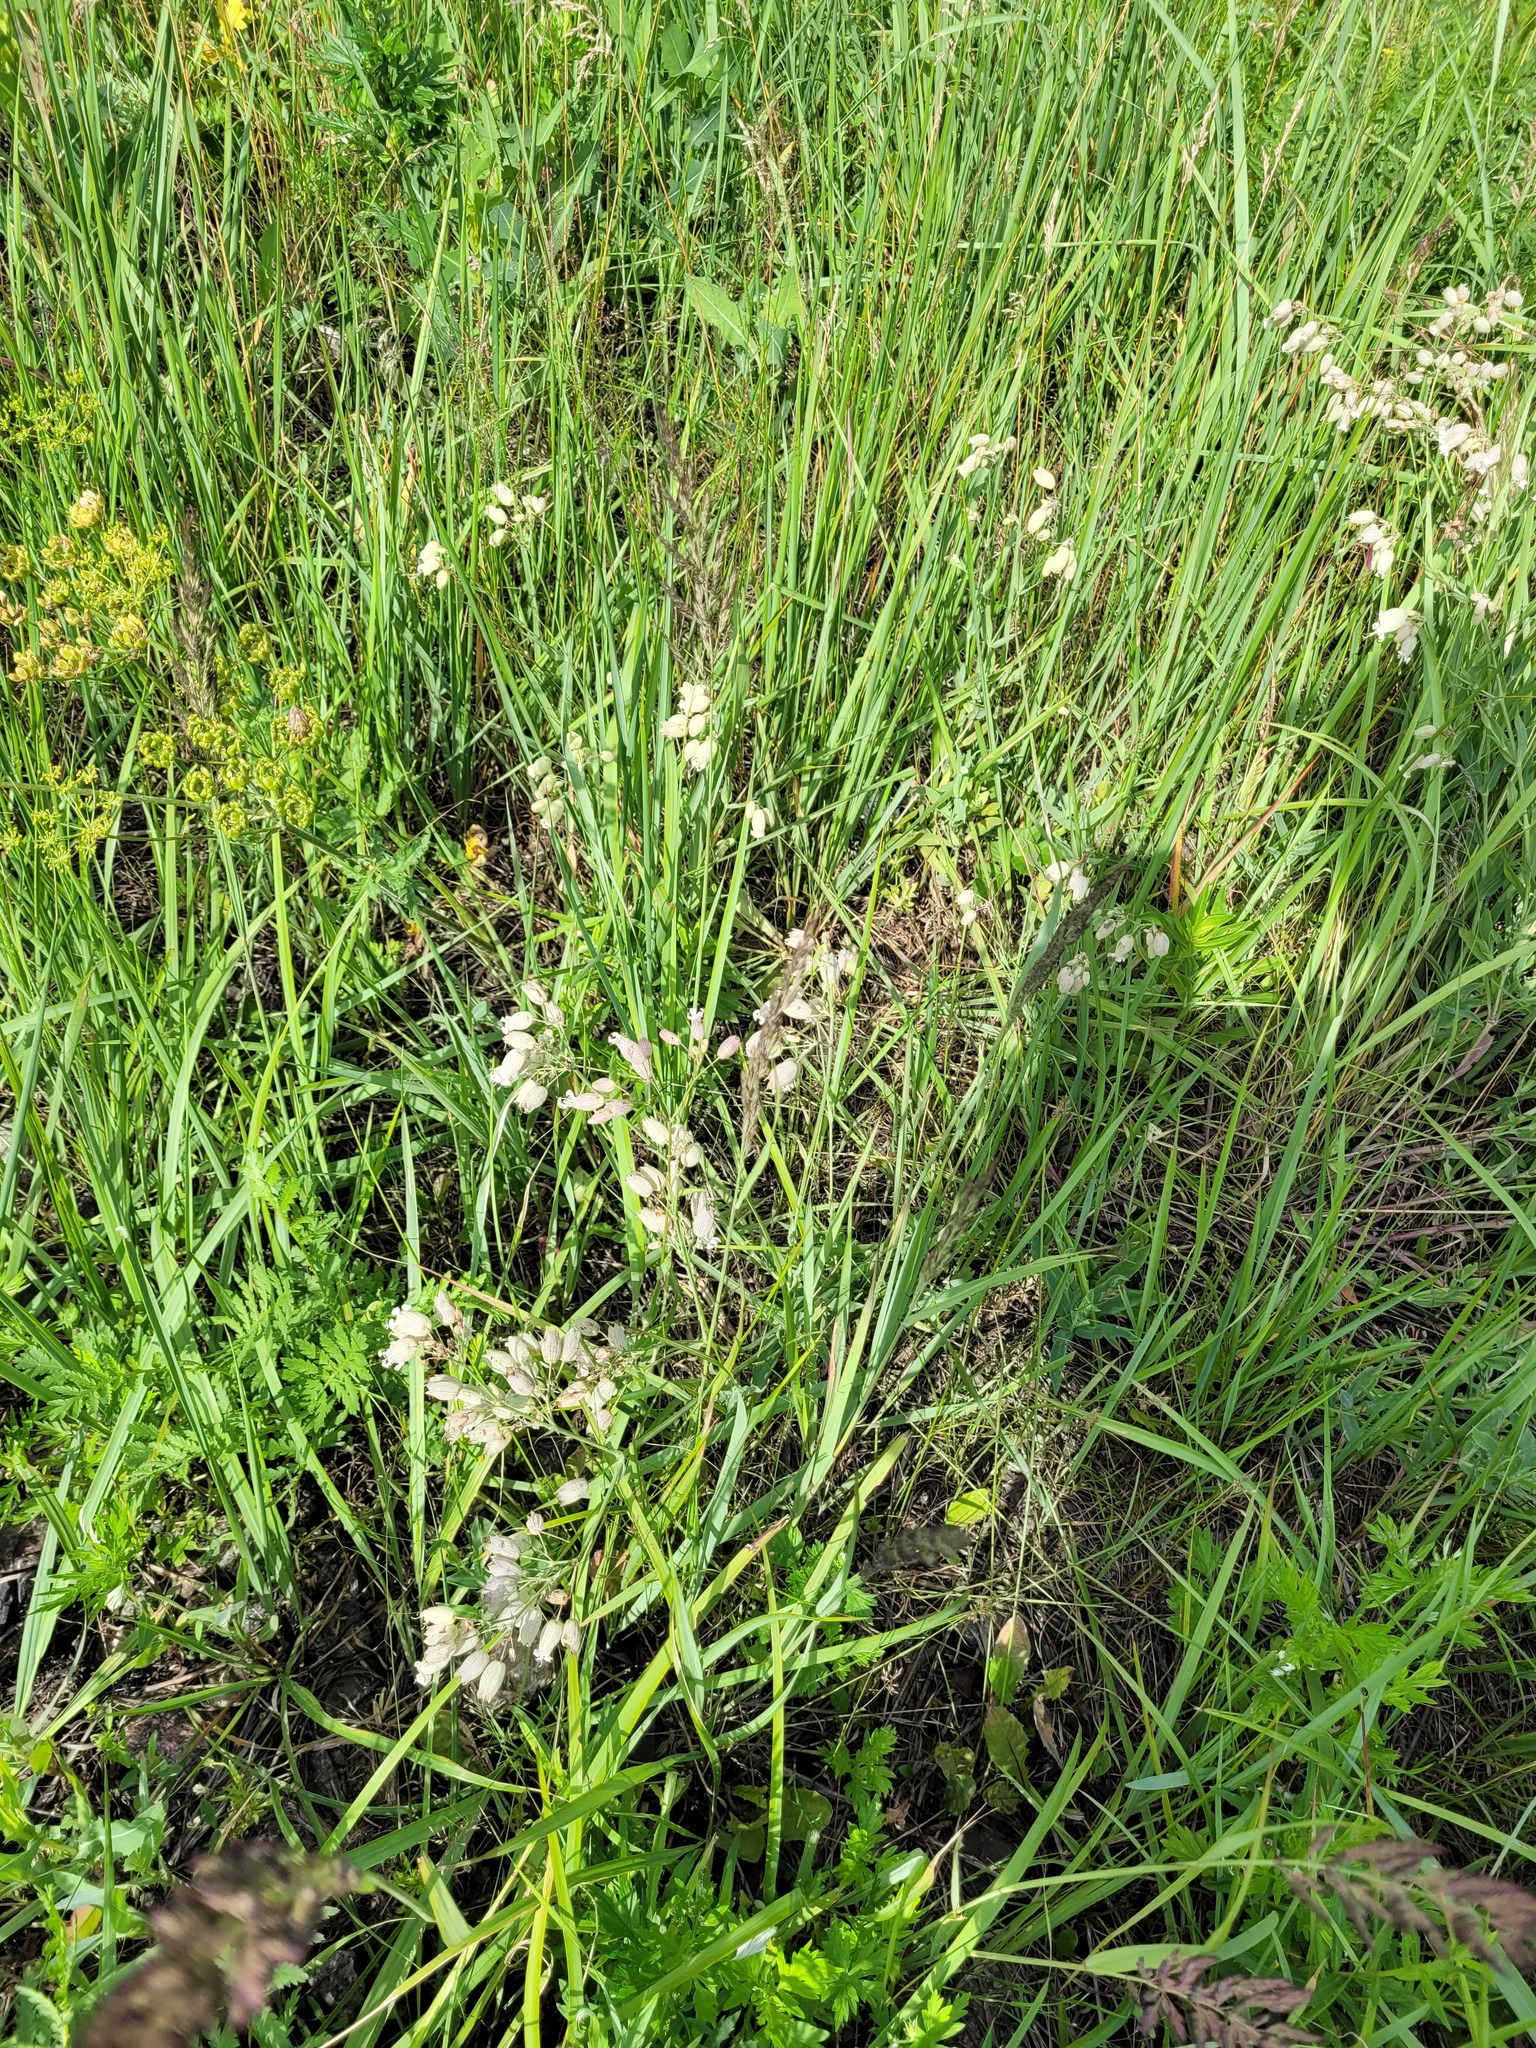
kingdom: Plantae
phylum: Tracheophyta
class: Magnoliopsida
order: Caryophyllales
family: Caryophyllaceae
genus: Silene
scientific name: Silene vulgaris
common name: Bladder campion
